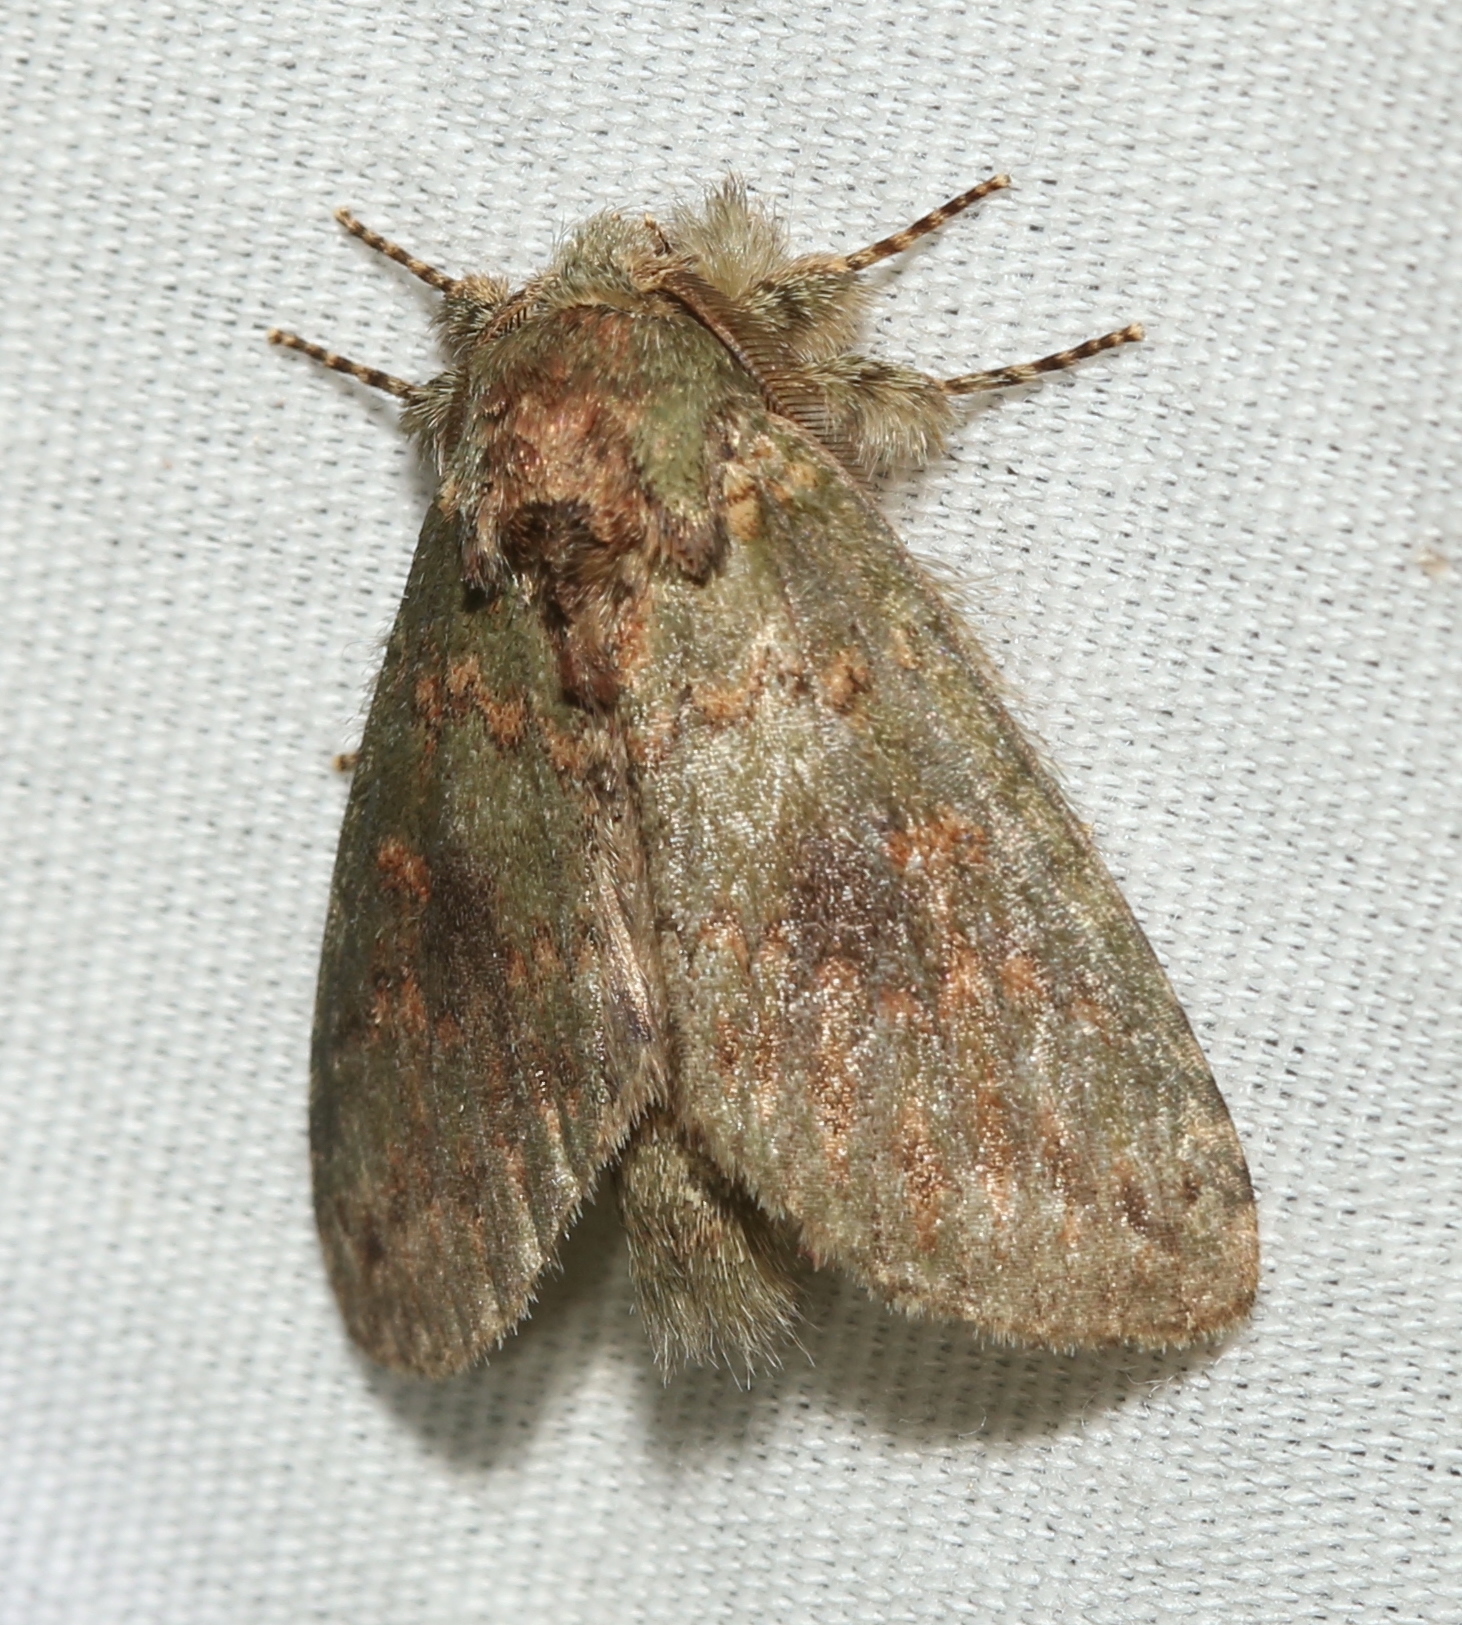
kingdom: Animalia
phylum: Arthropoda
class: Insecta
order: Lepidoptera
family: Notodontidae
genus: Disphragis
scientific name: Disphragis Cecrita biundata
